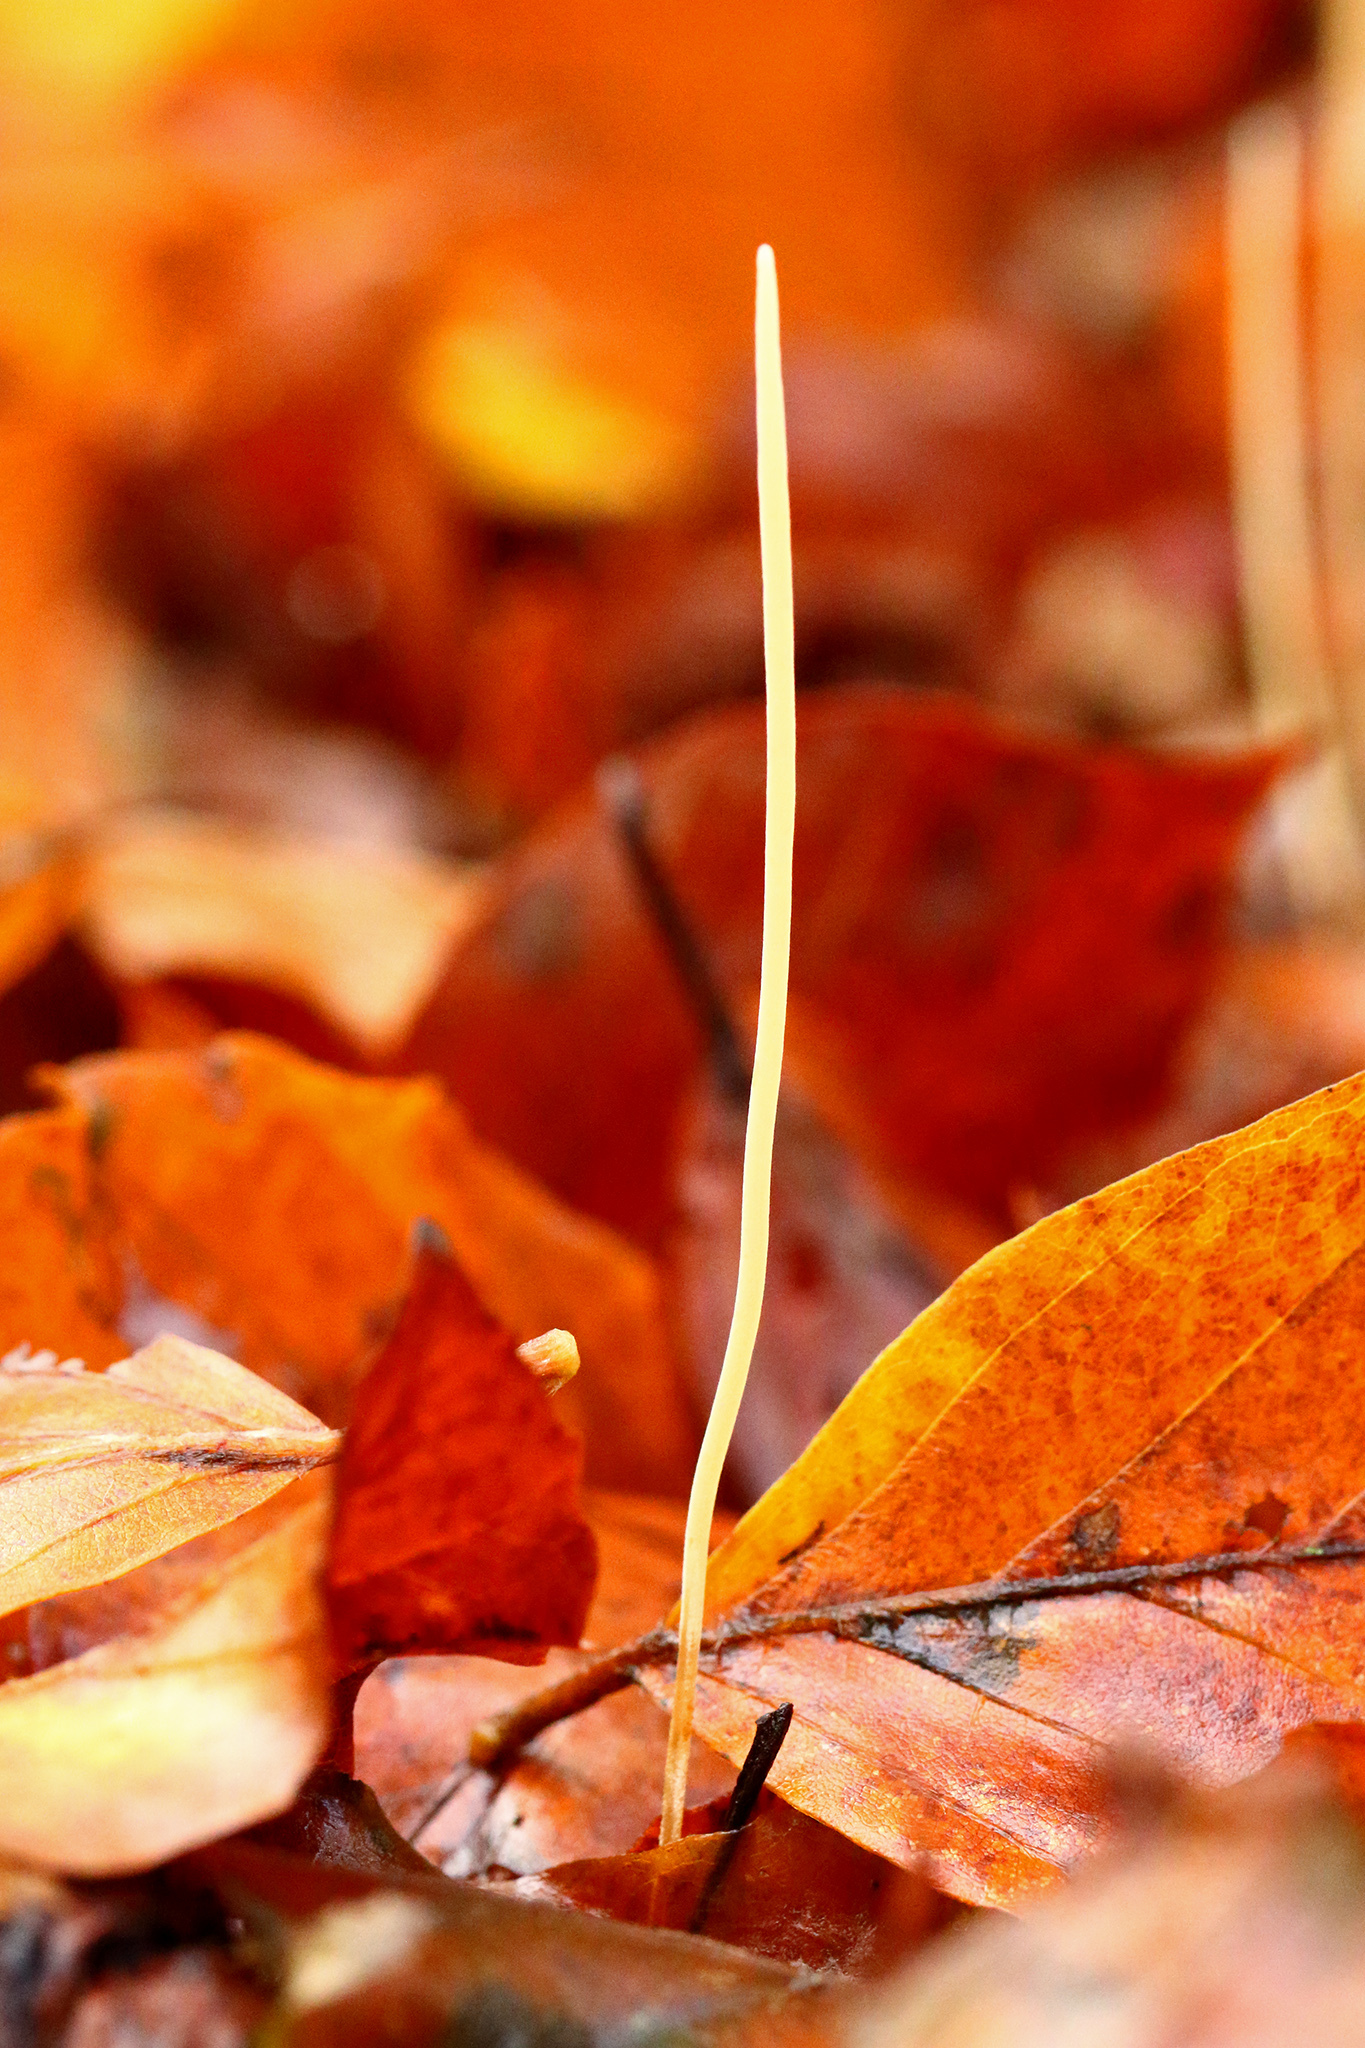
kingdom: Fungi
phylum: Basidiomycota
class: Agaricomycetes
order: Agaricales
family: Typhulaceae
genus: Typhula
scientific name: Typhula juncea
